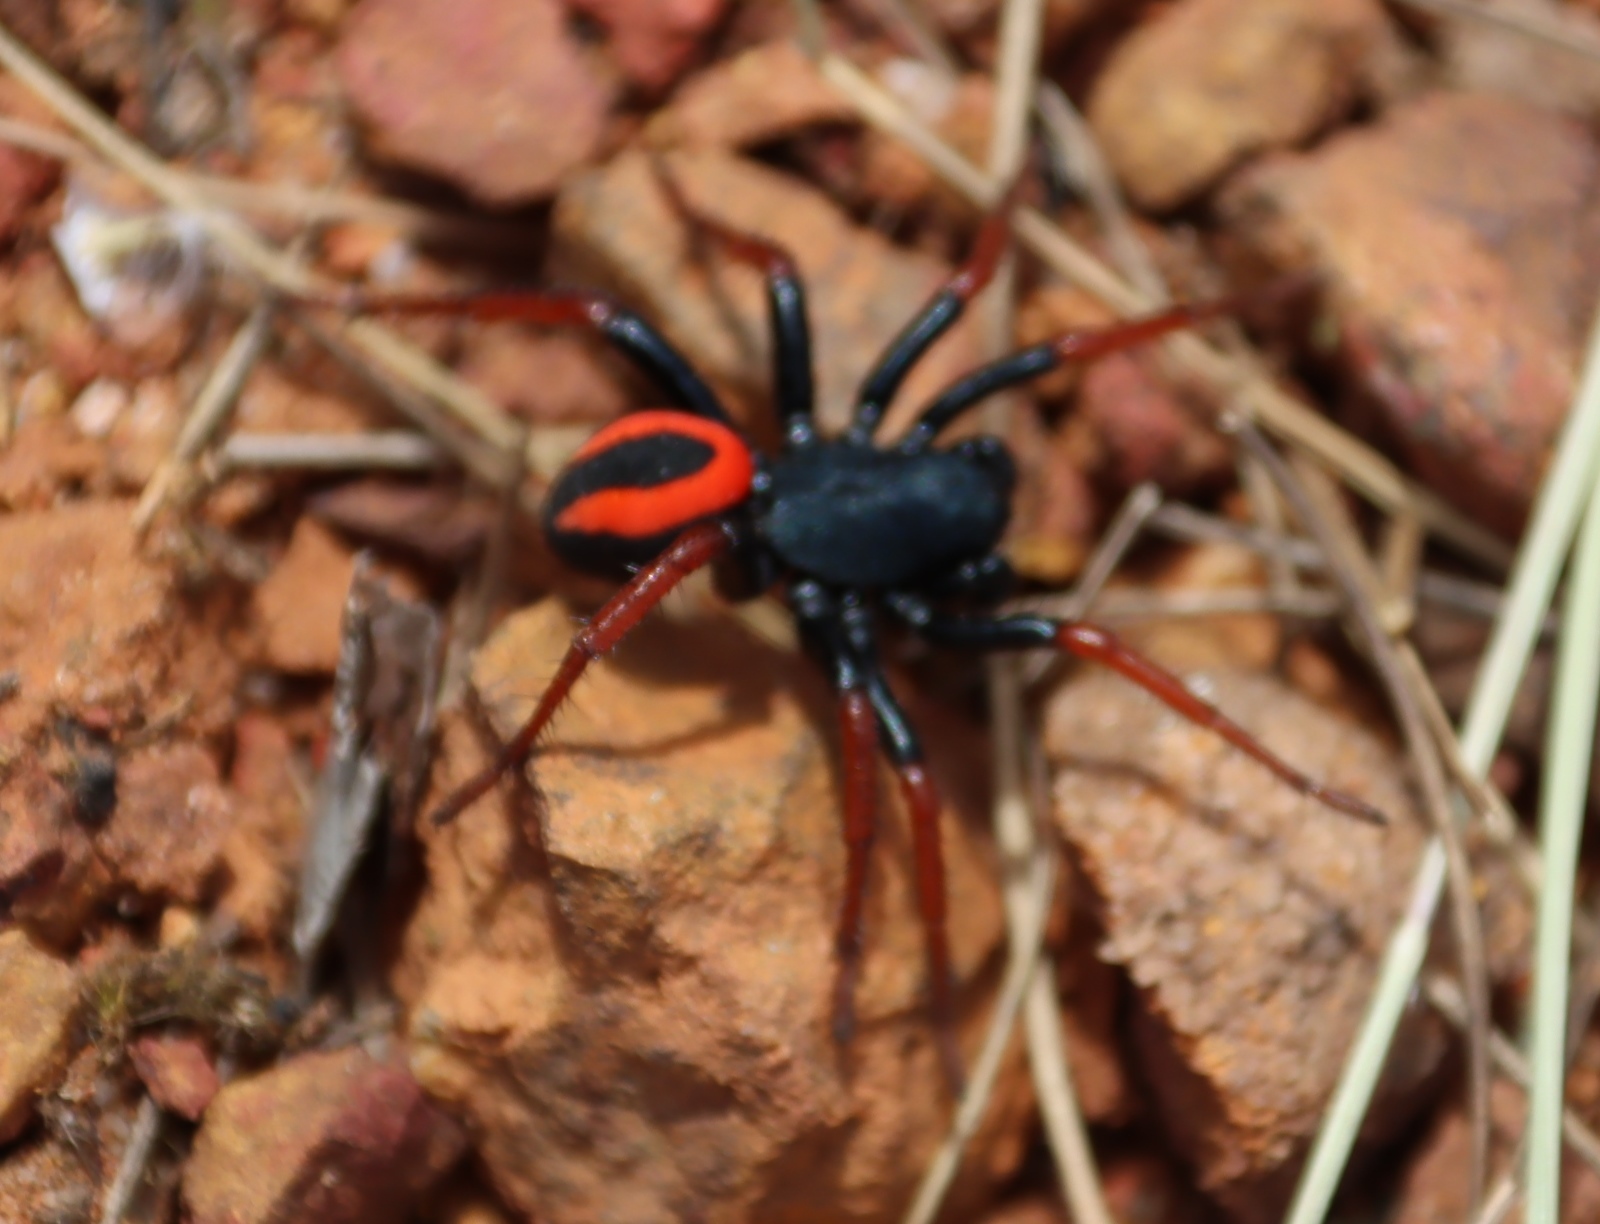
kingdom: Animalia
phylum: Arthropoda
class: Arachnida
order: Araneae
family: Zodariidae
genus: Psammorygma
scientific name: Psammorygma aculeatum
